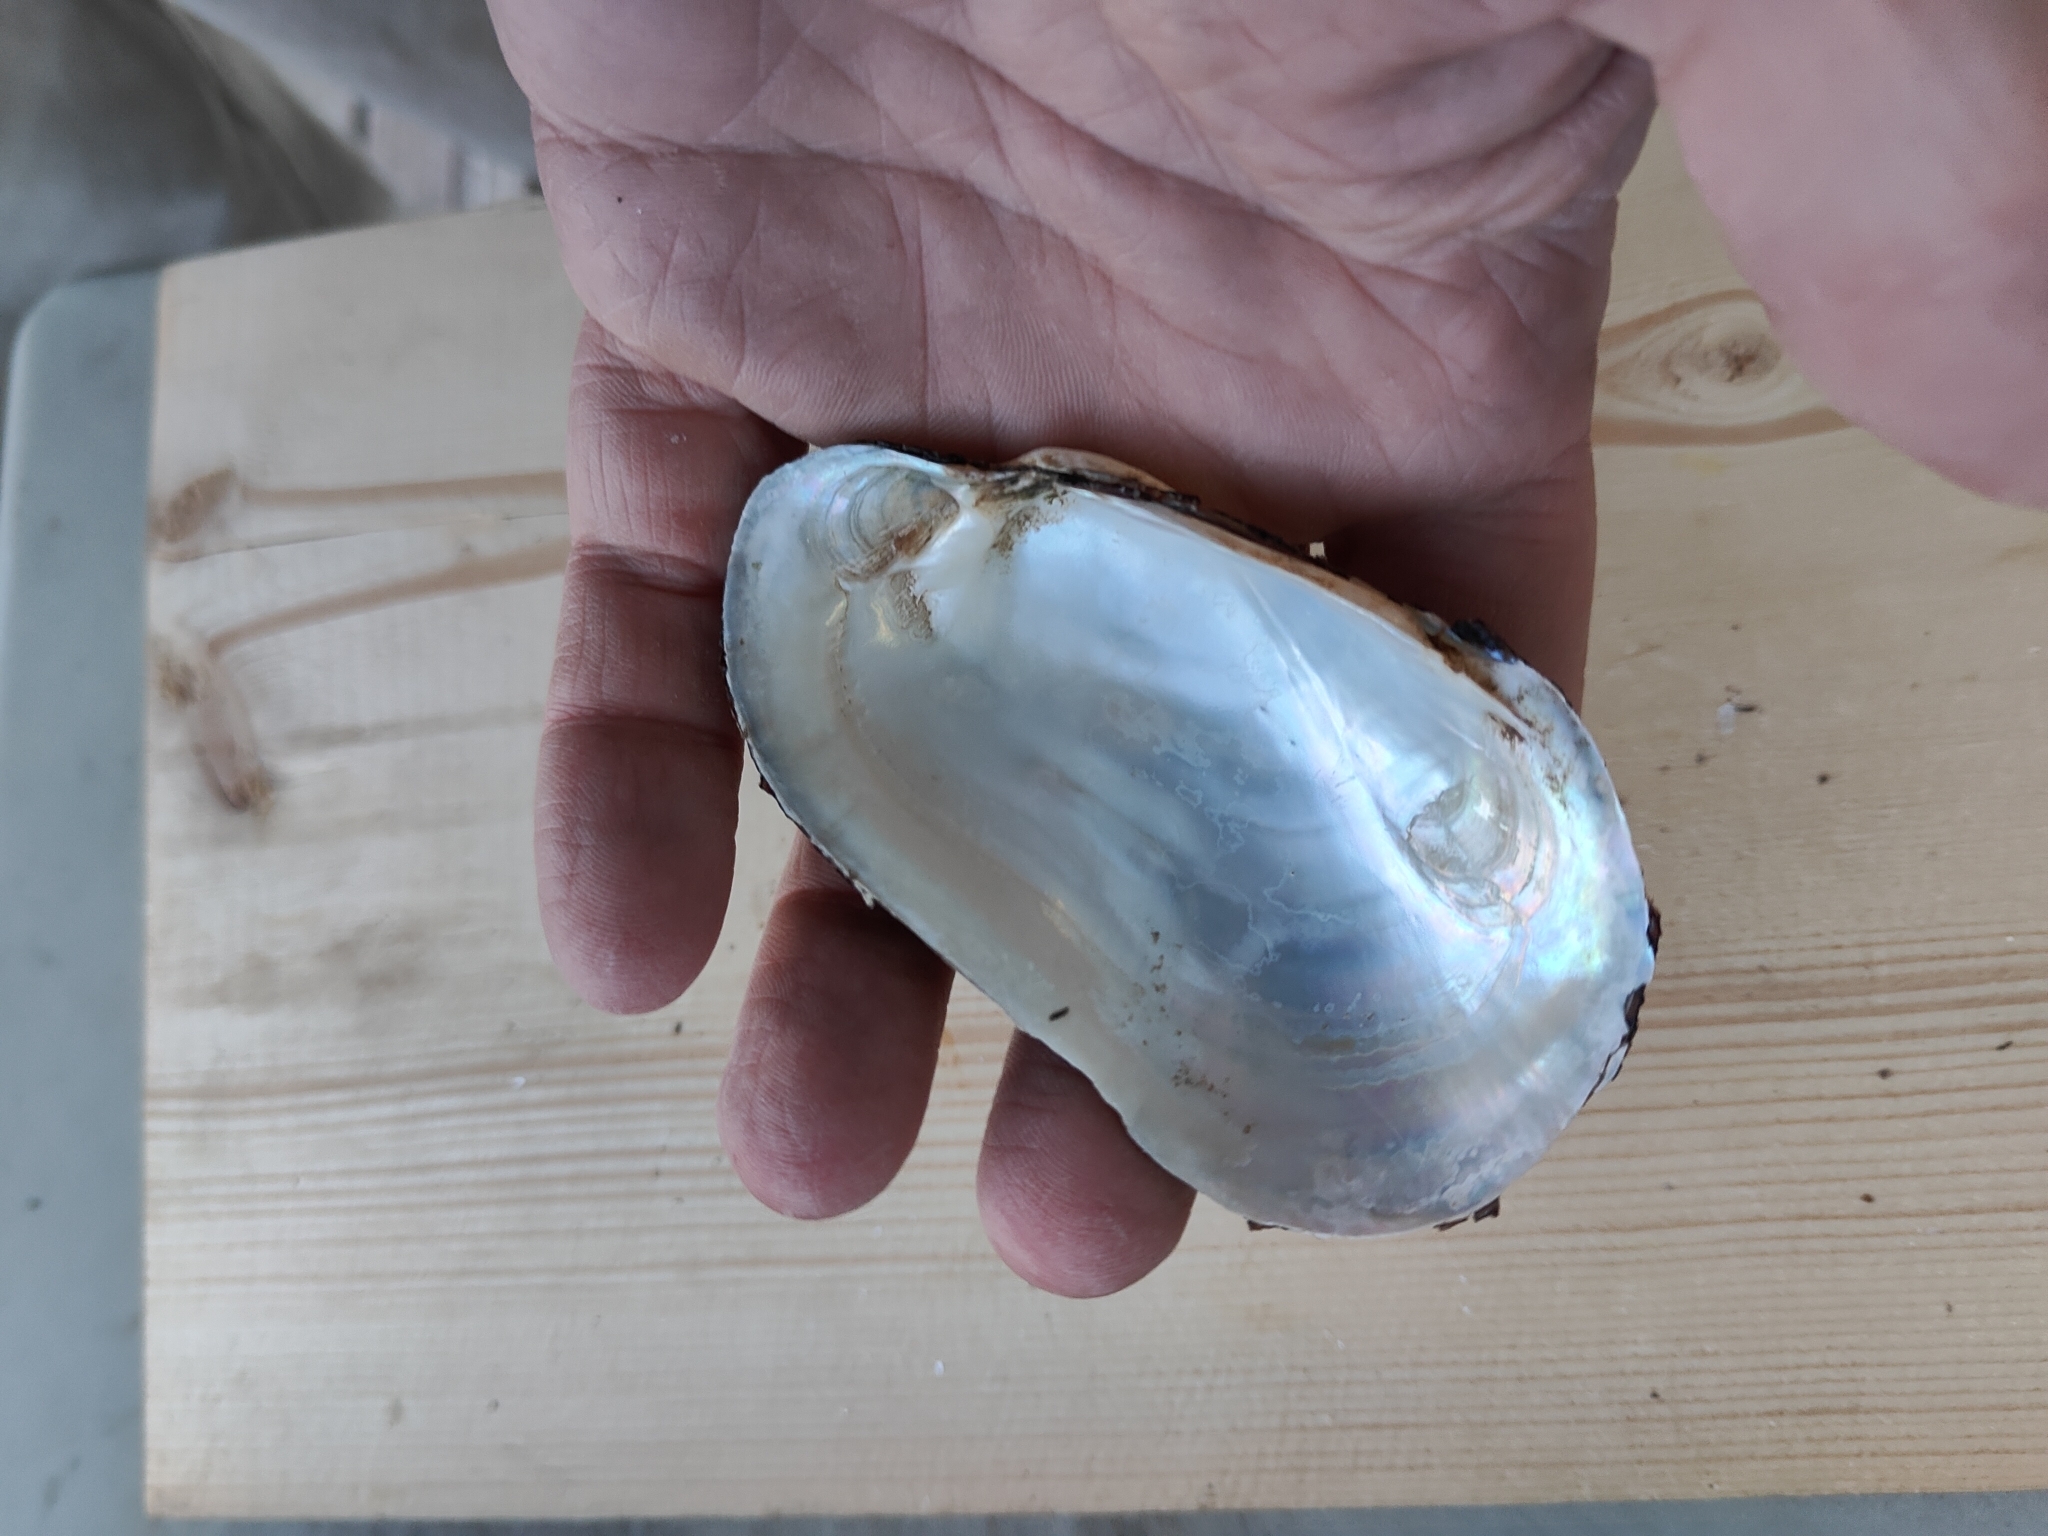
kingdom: Animalia
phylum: Mollusca
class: Bivalvia
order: Unionida
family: Unionidae
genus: Lampsilis
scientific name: Lampsilis siliquoidea
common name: Fatmucket
